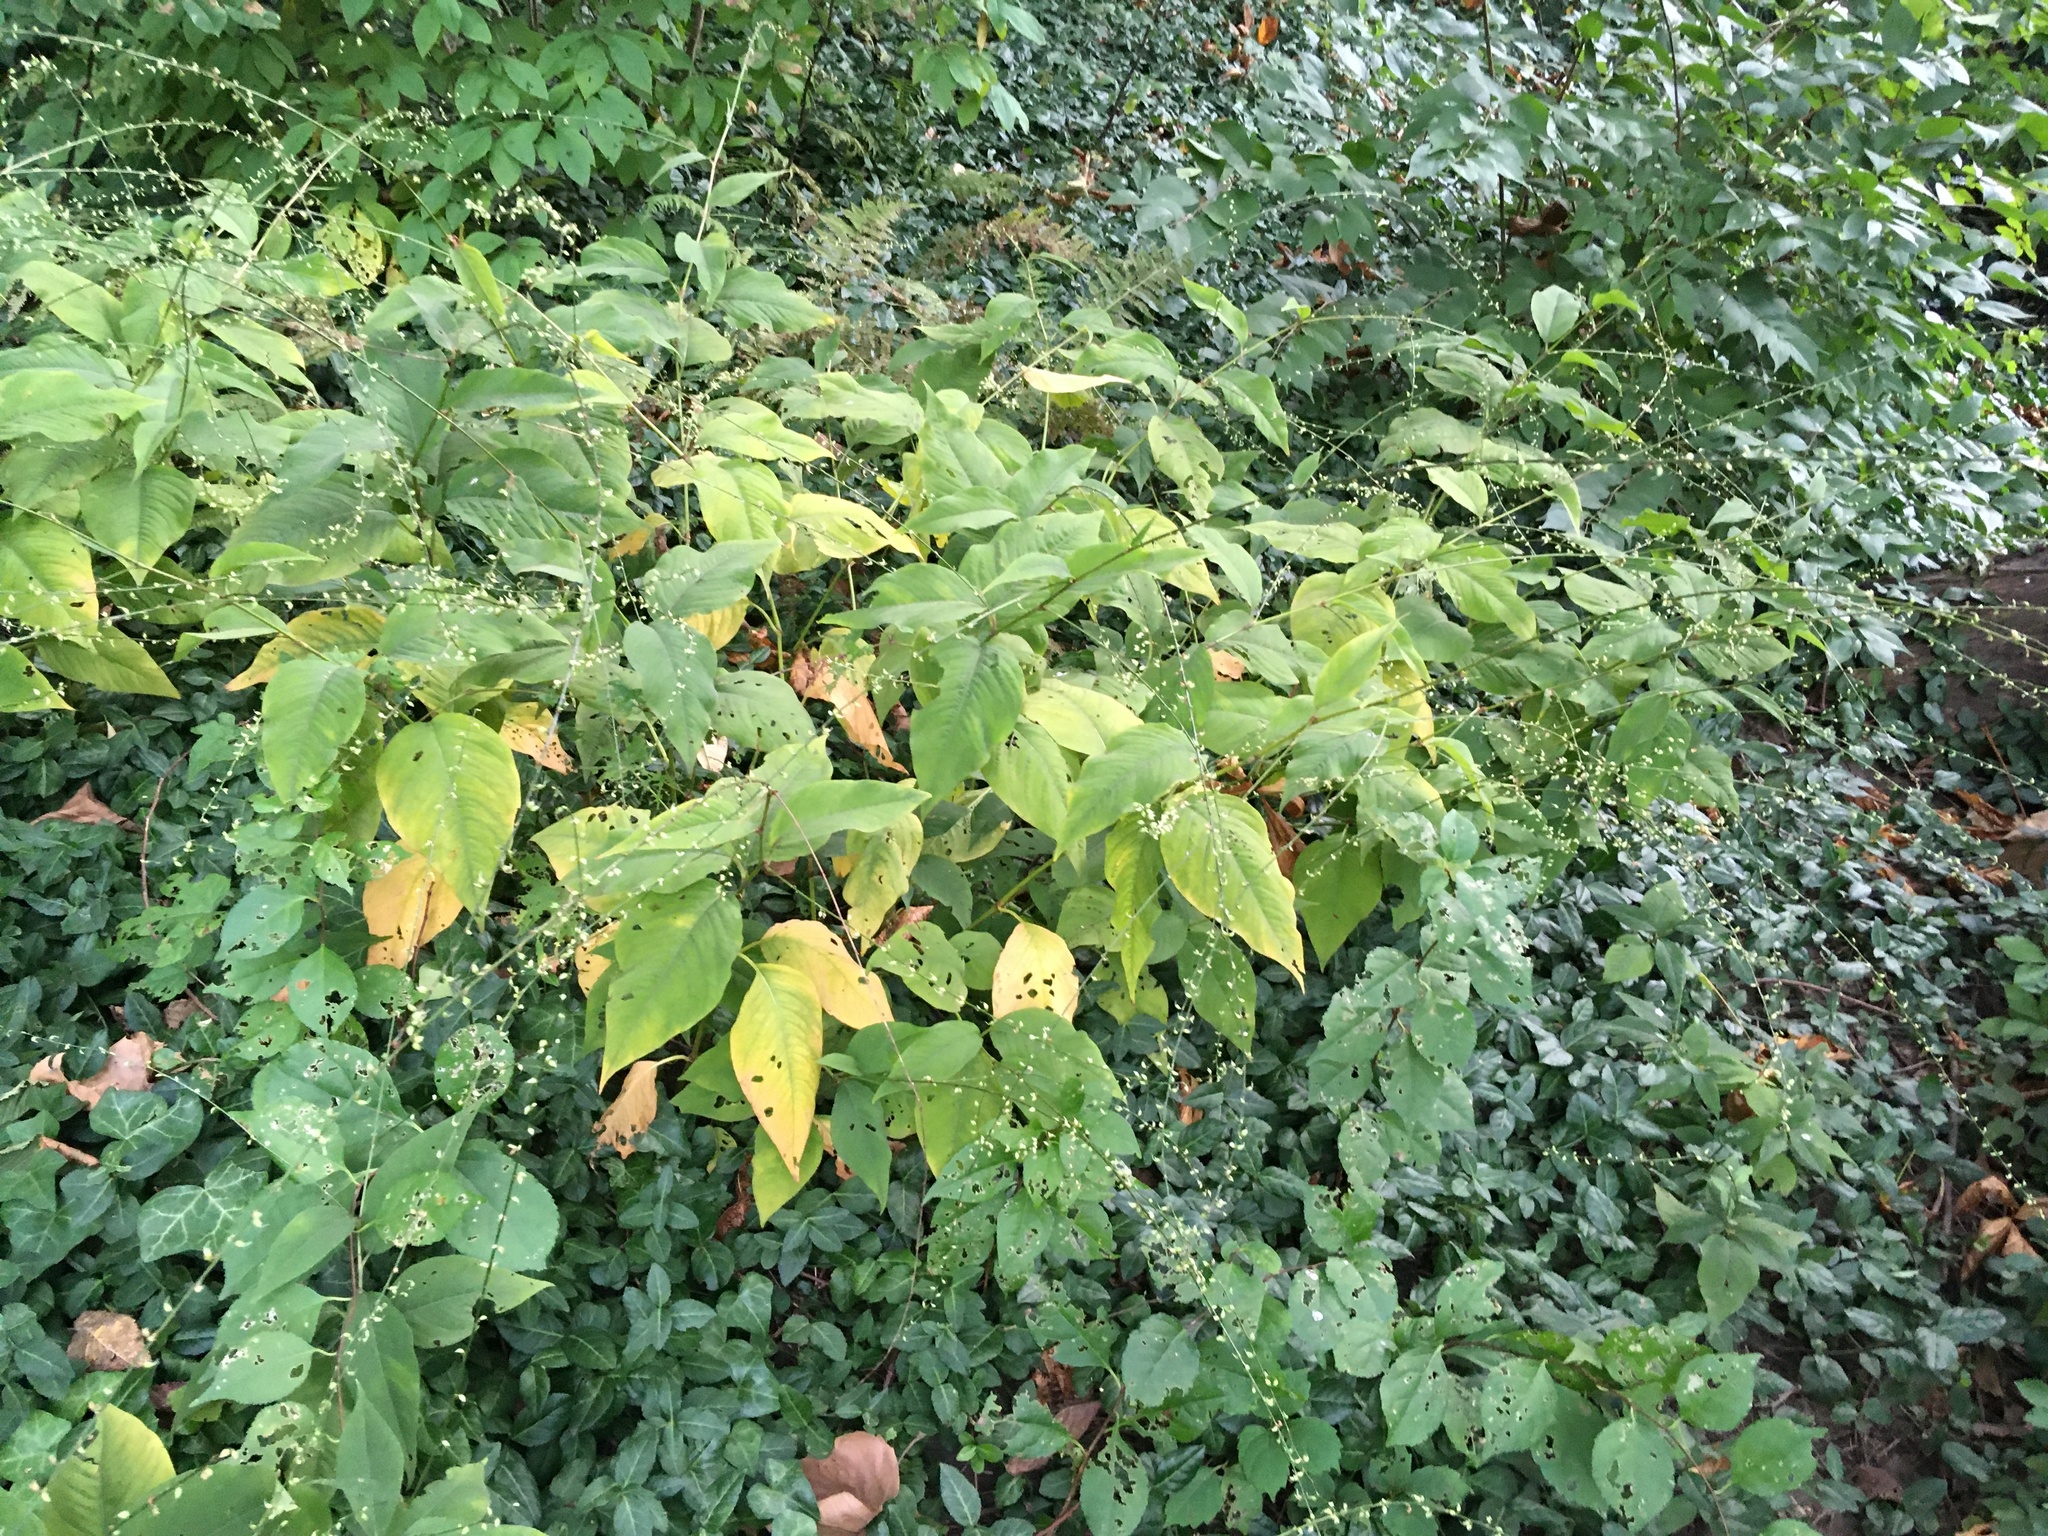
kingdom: Plantae
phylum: Tracheophyta
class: Magnoliopsida
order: Caryophyllales
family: Polygonaceae
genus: Persicaria
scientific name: Persicaria virginiana
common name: Jumpseed
